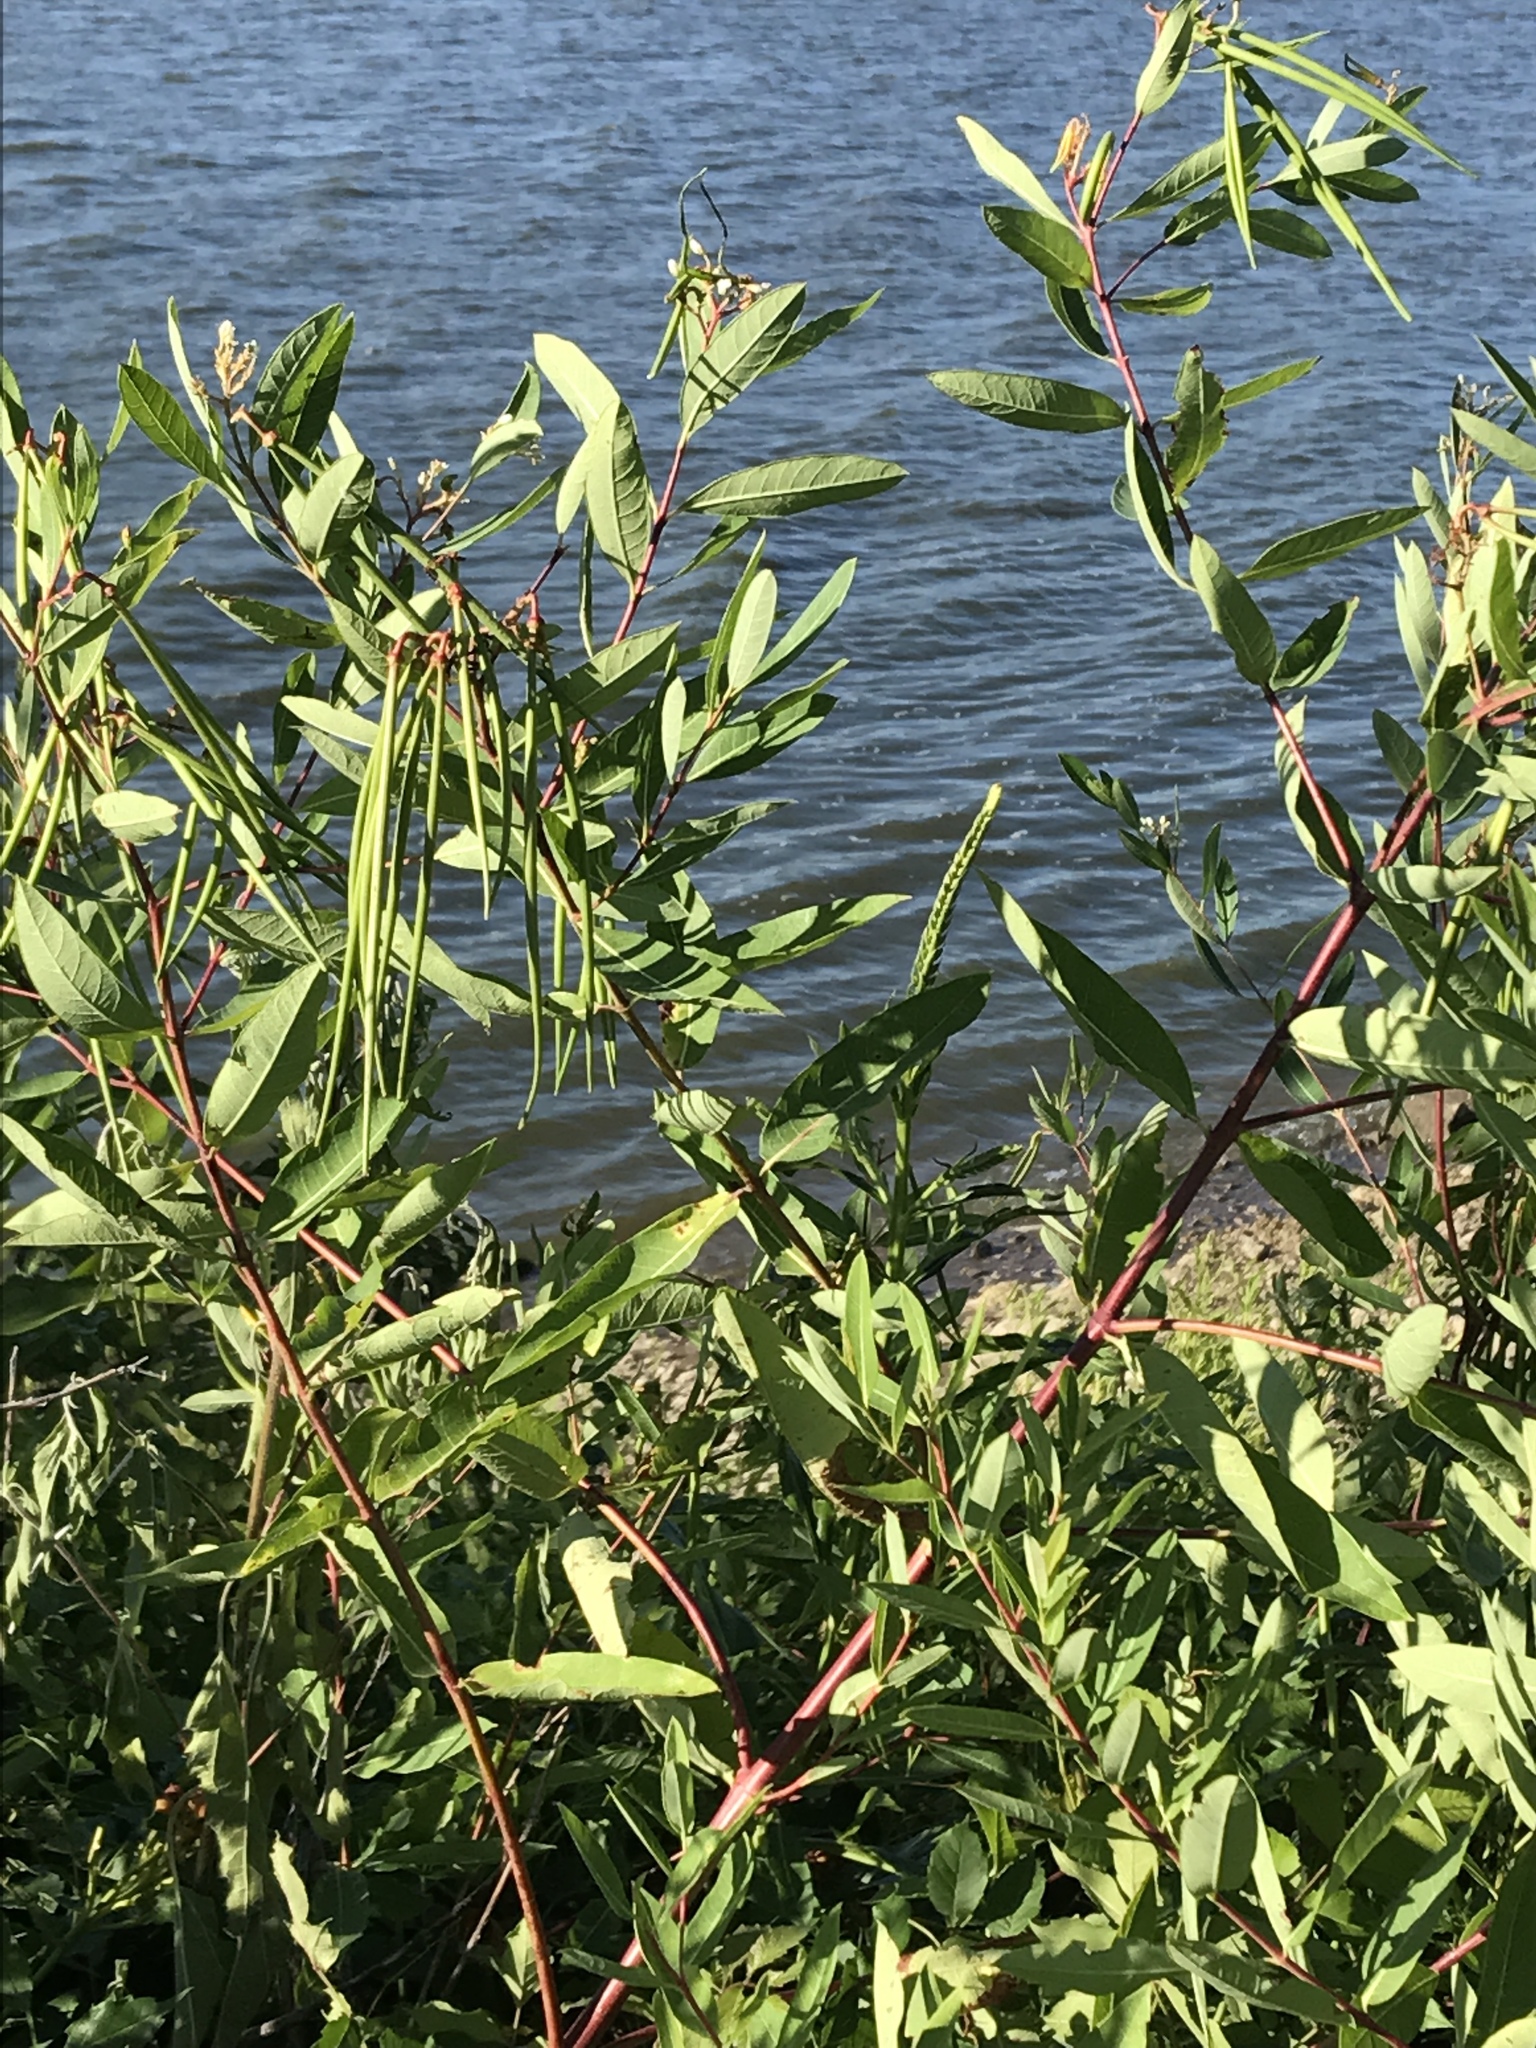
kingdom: Plantae
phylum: Tracheophyta
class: Magnoliopsida
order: Gentianales
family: Apocynaceae
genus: Apocynum
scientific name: Apocynum cannabinum
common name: Hemp dogbane
